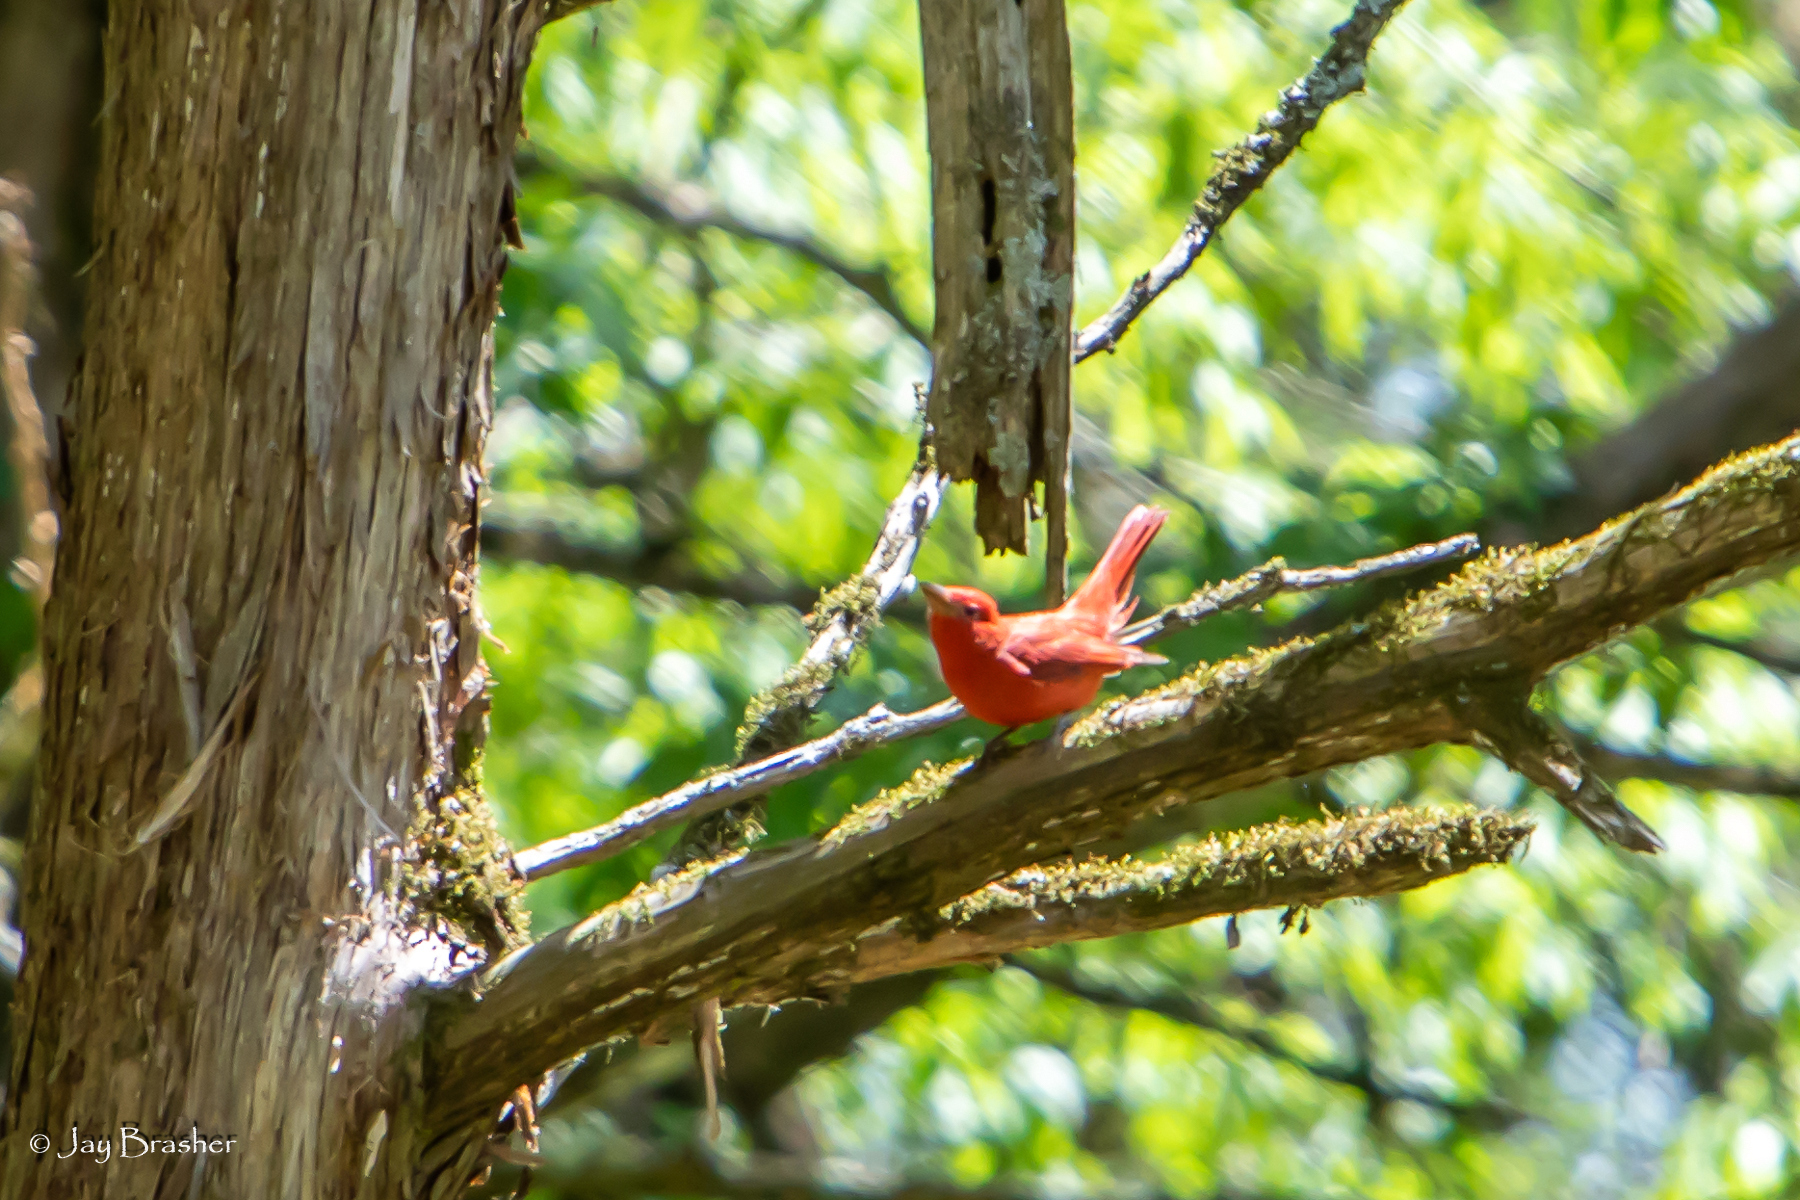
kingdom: Animalia
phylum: Chordata
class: Aves
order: Passeriformes
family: Cardinalidae
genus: Piranga
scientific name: Piranga rubra
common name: Summer tanager
